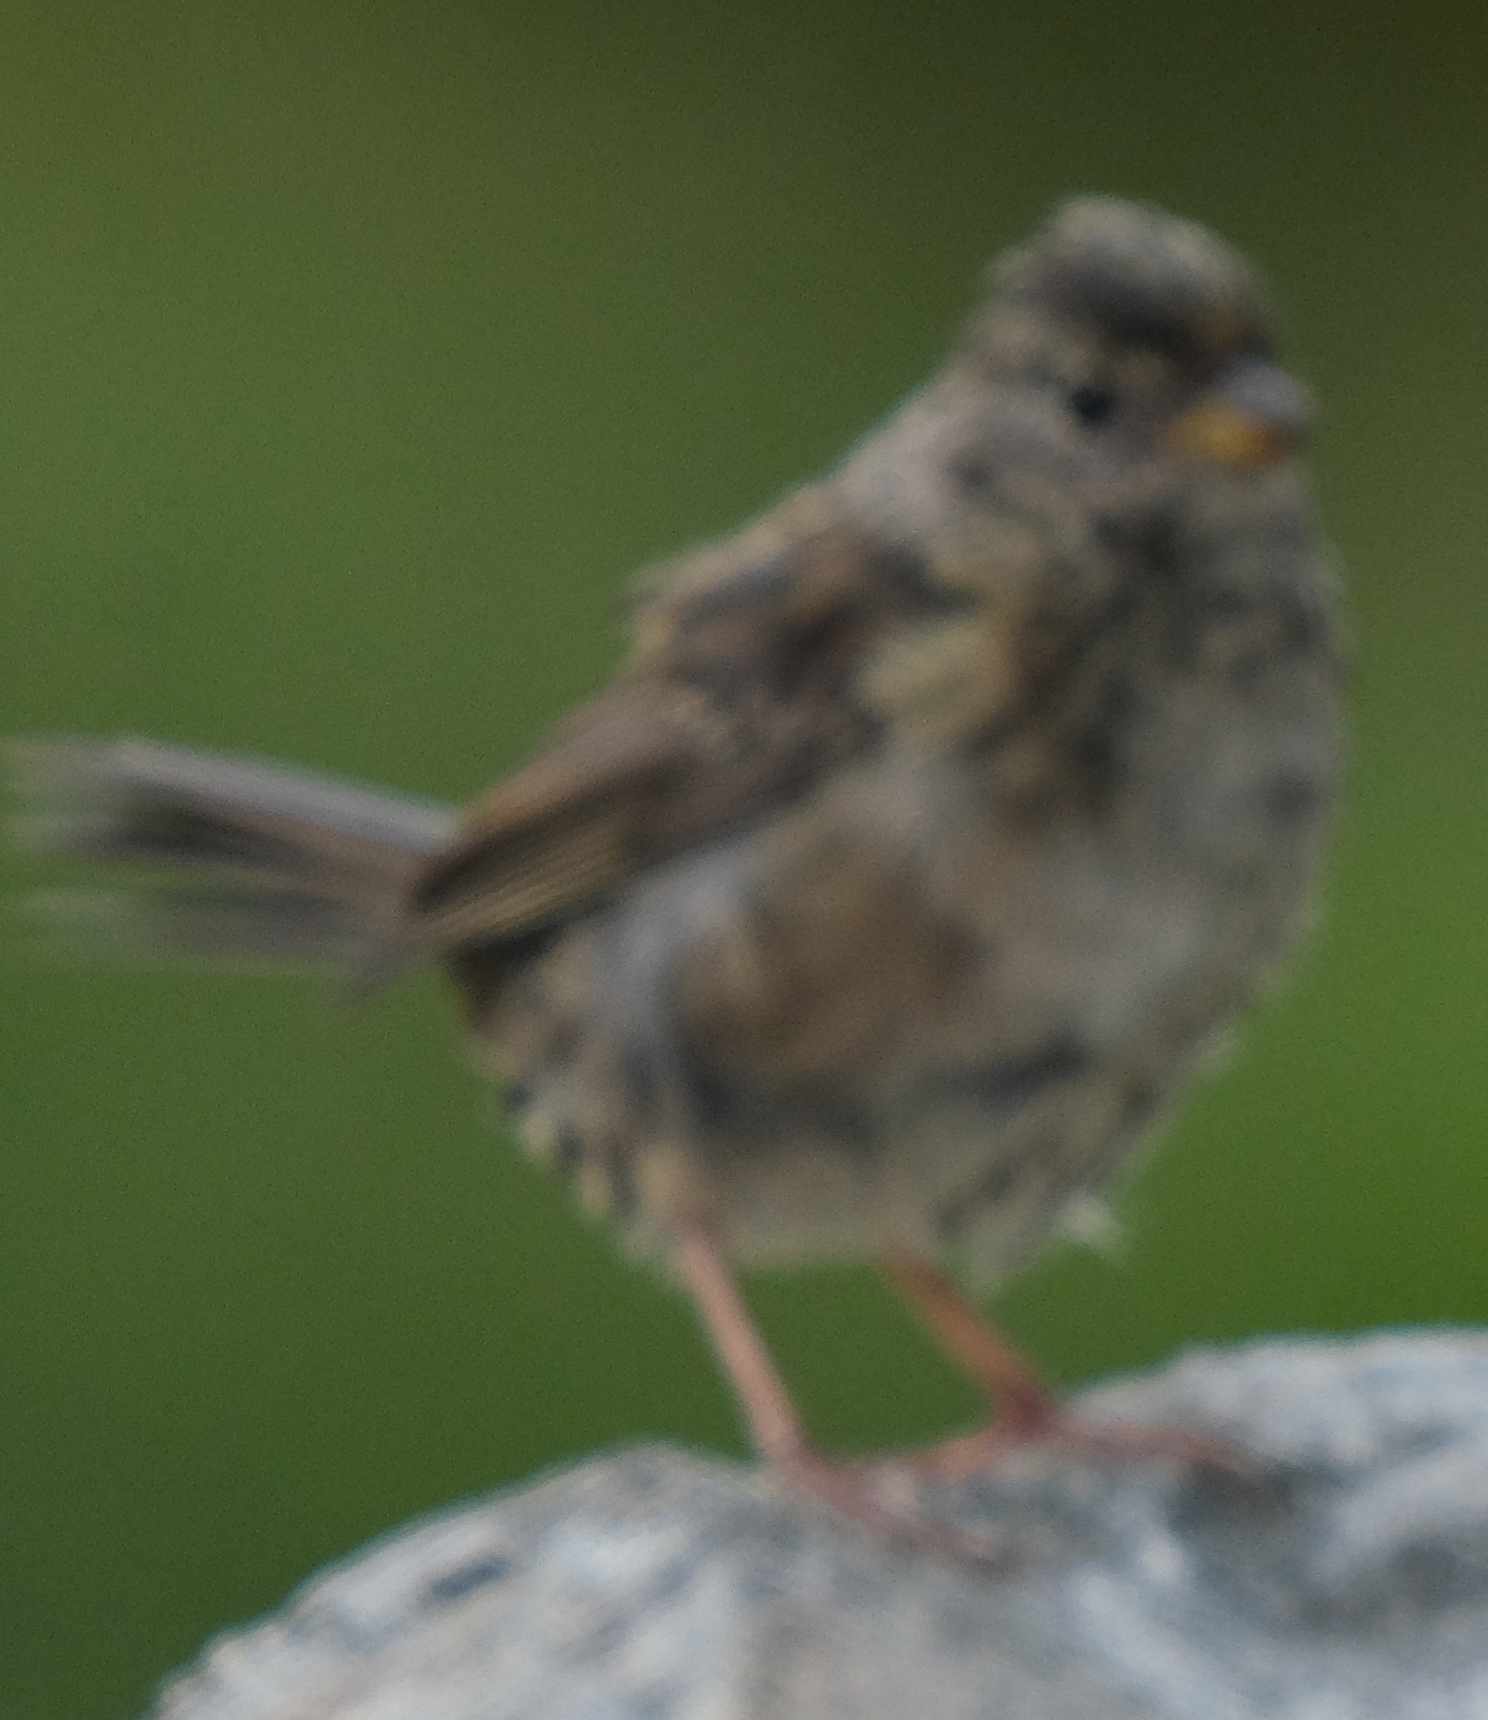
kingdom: Animalia
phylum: Chordata
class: Aves
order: Passeriformes
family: Passerellidae
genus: Zonotrichia
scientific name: Zonotrichia leucophrys
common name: White-crowned sparrow
